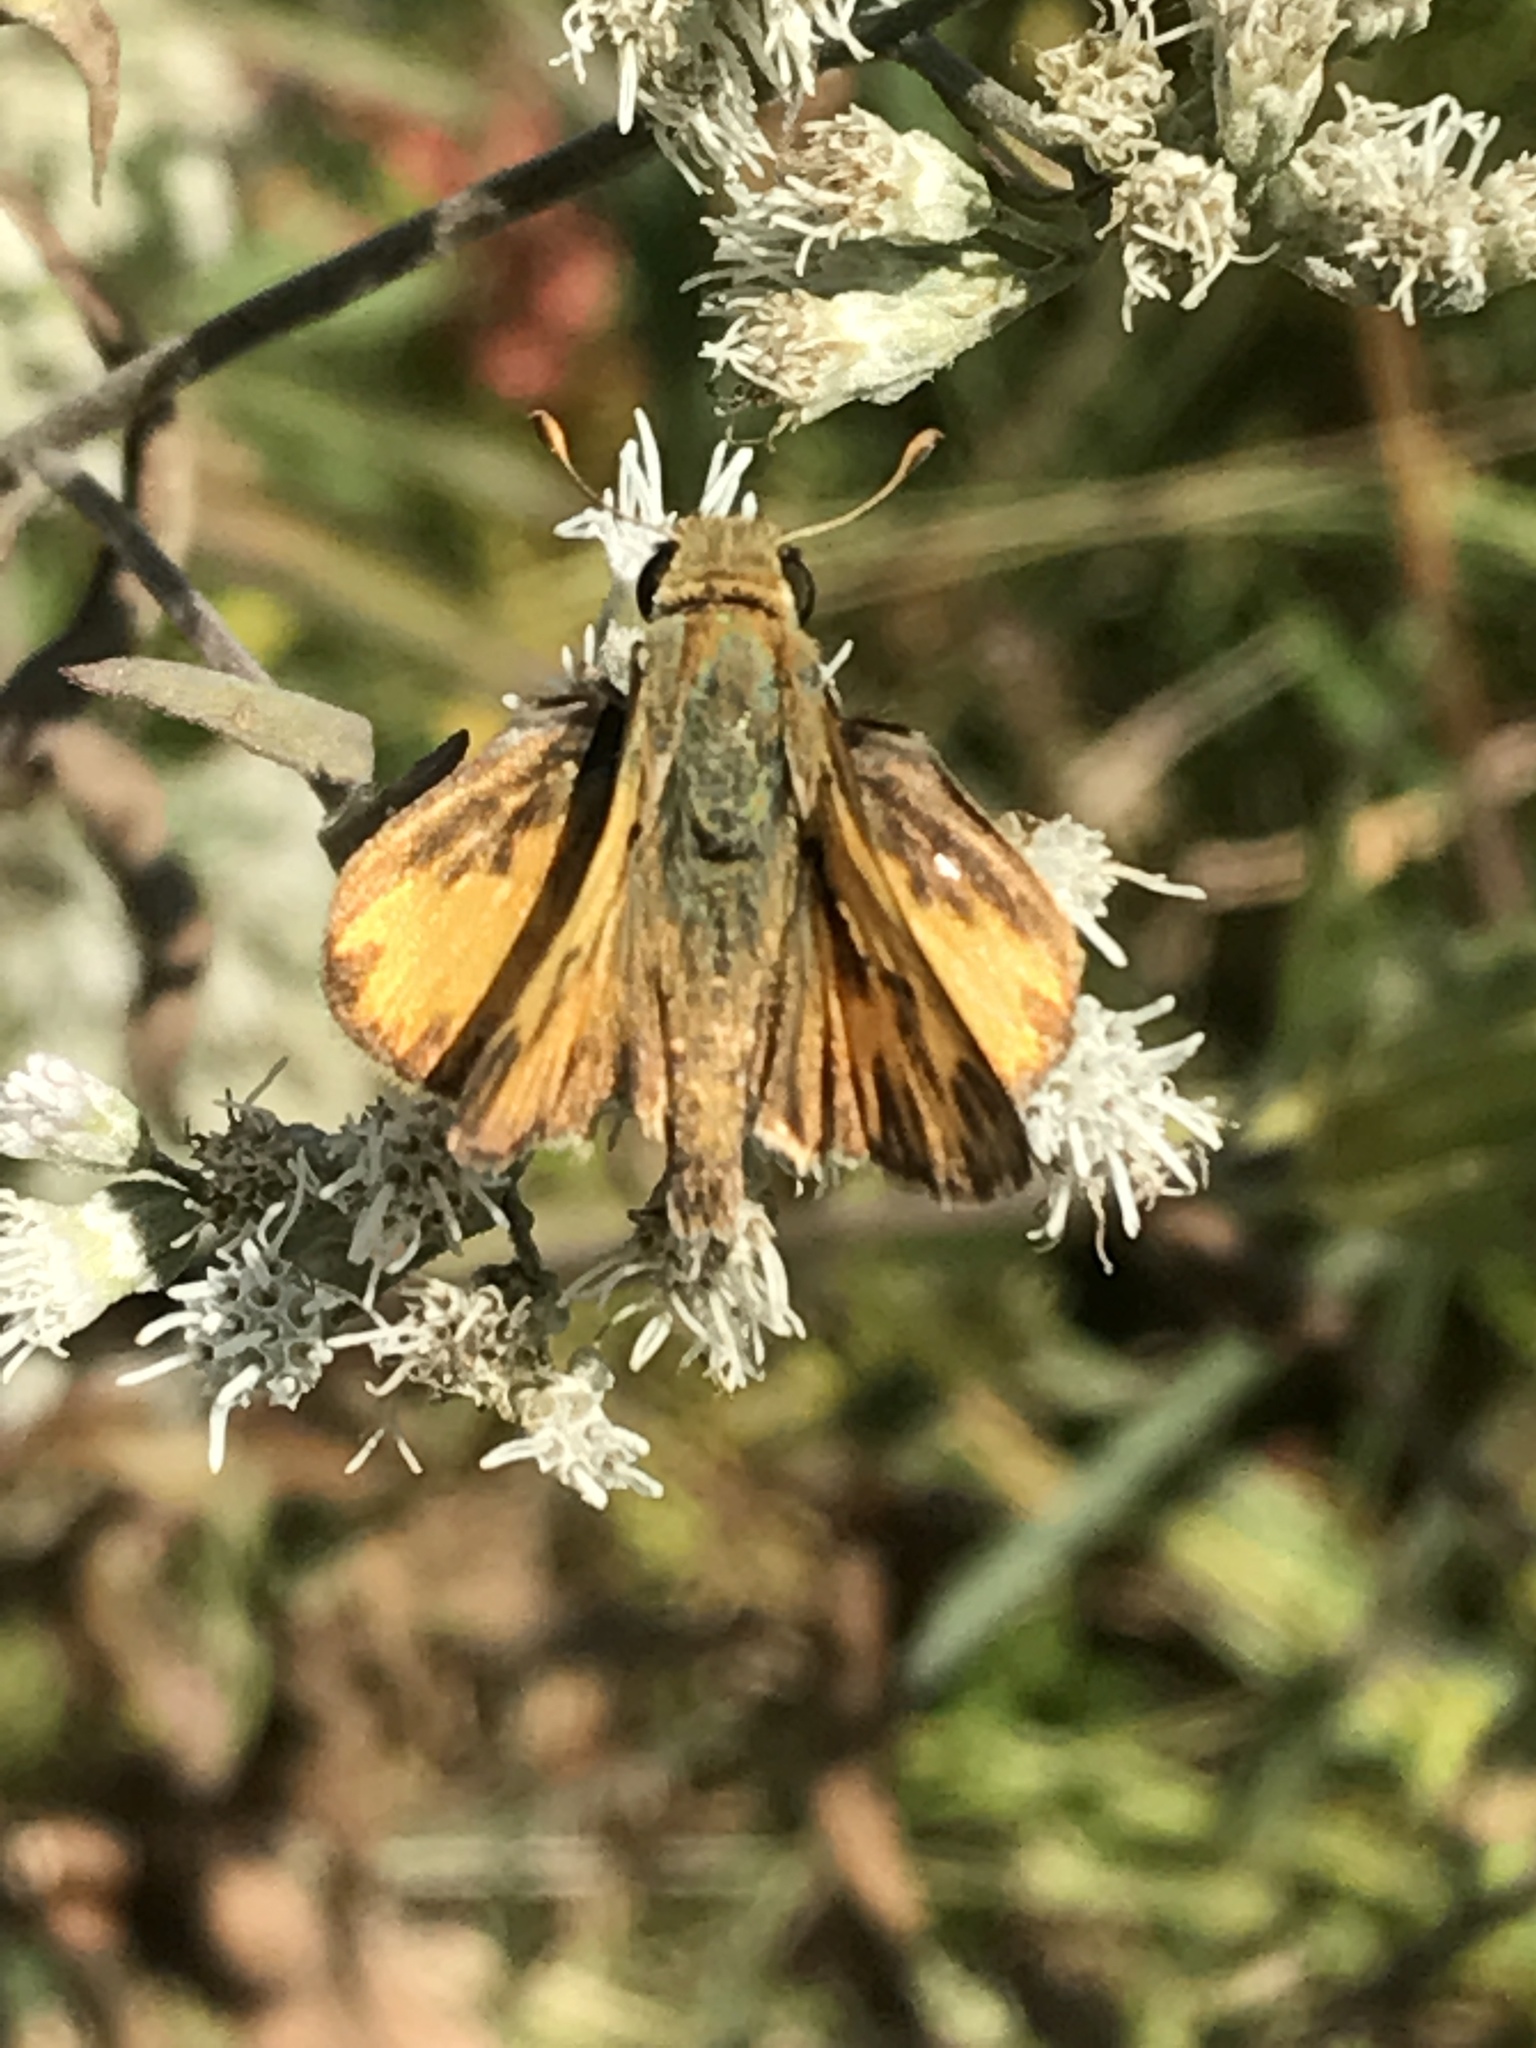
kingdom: Animalia
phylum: Arthropoda
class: Insecta
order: Lepidoptera
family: Hesperiidae
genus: Hylephila
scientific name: Hylephila phyleus
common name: Fiery skipper
